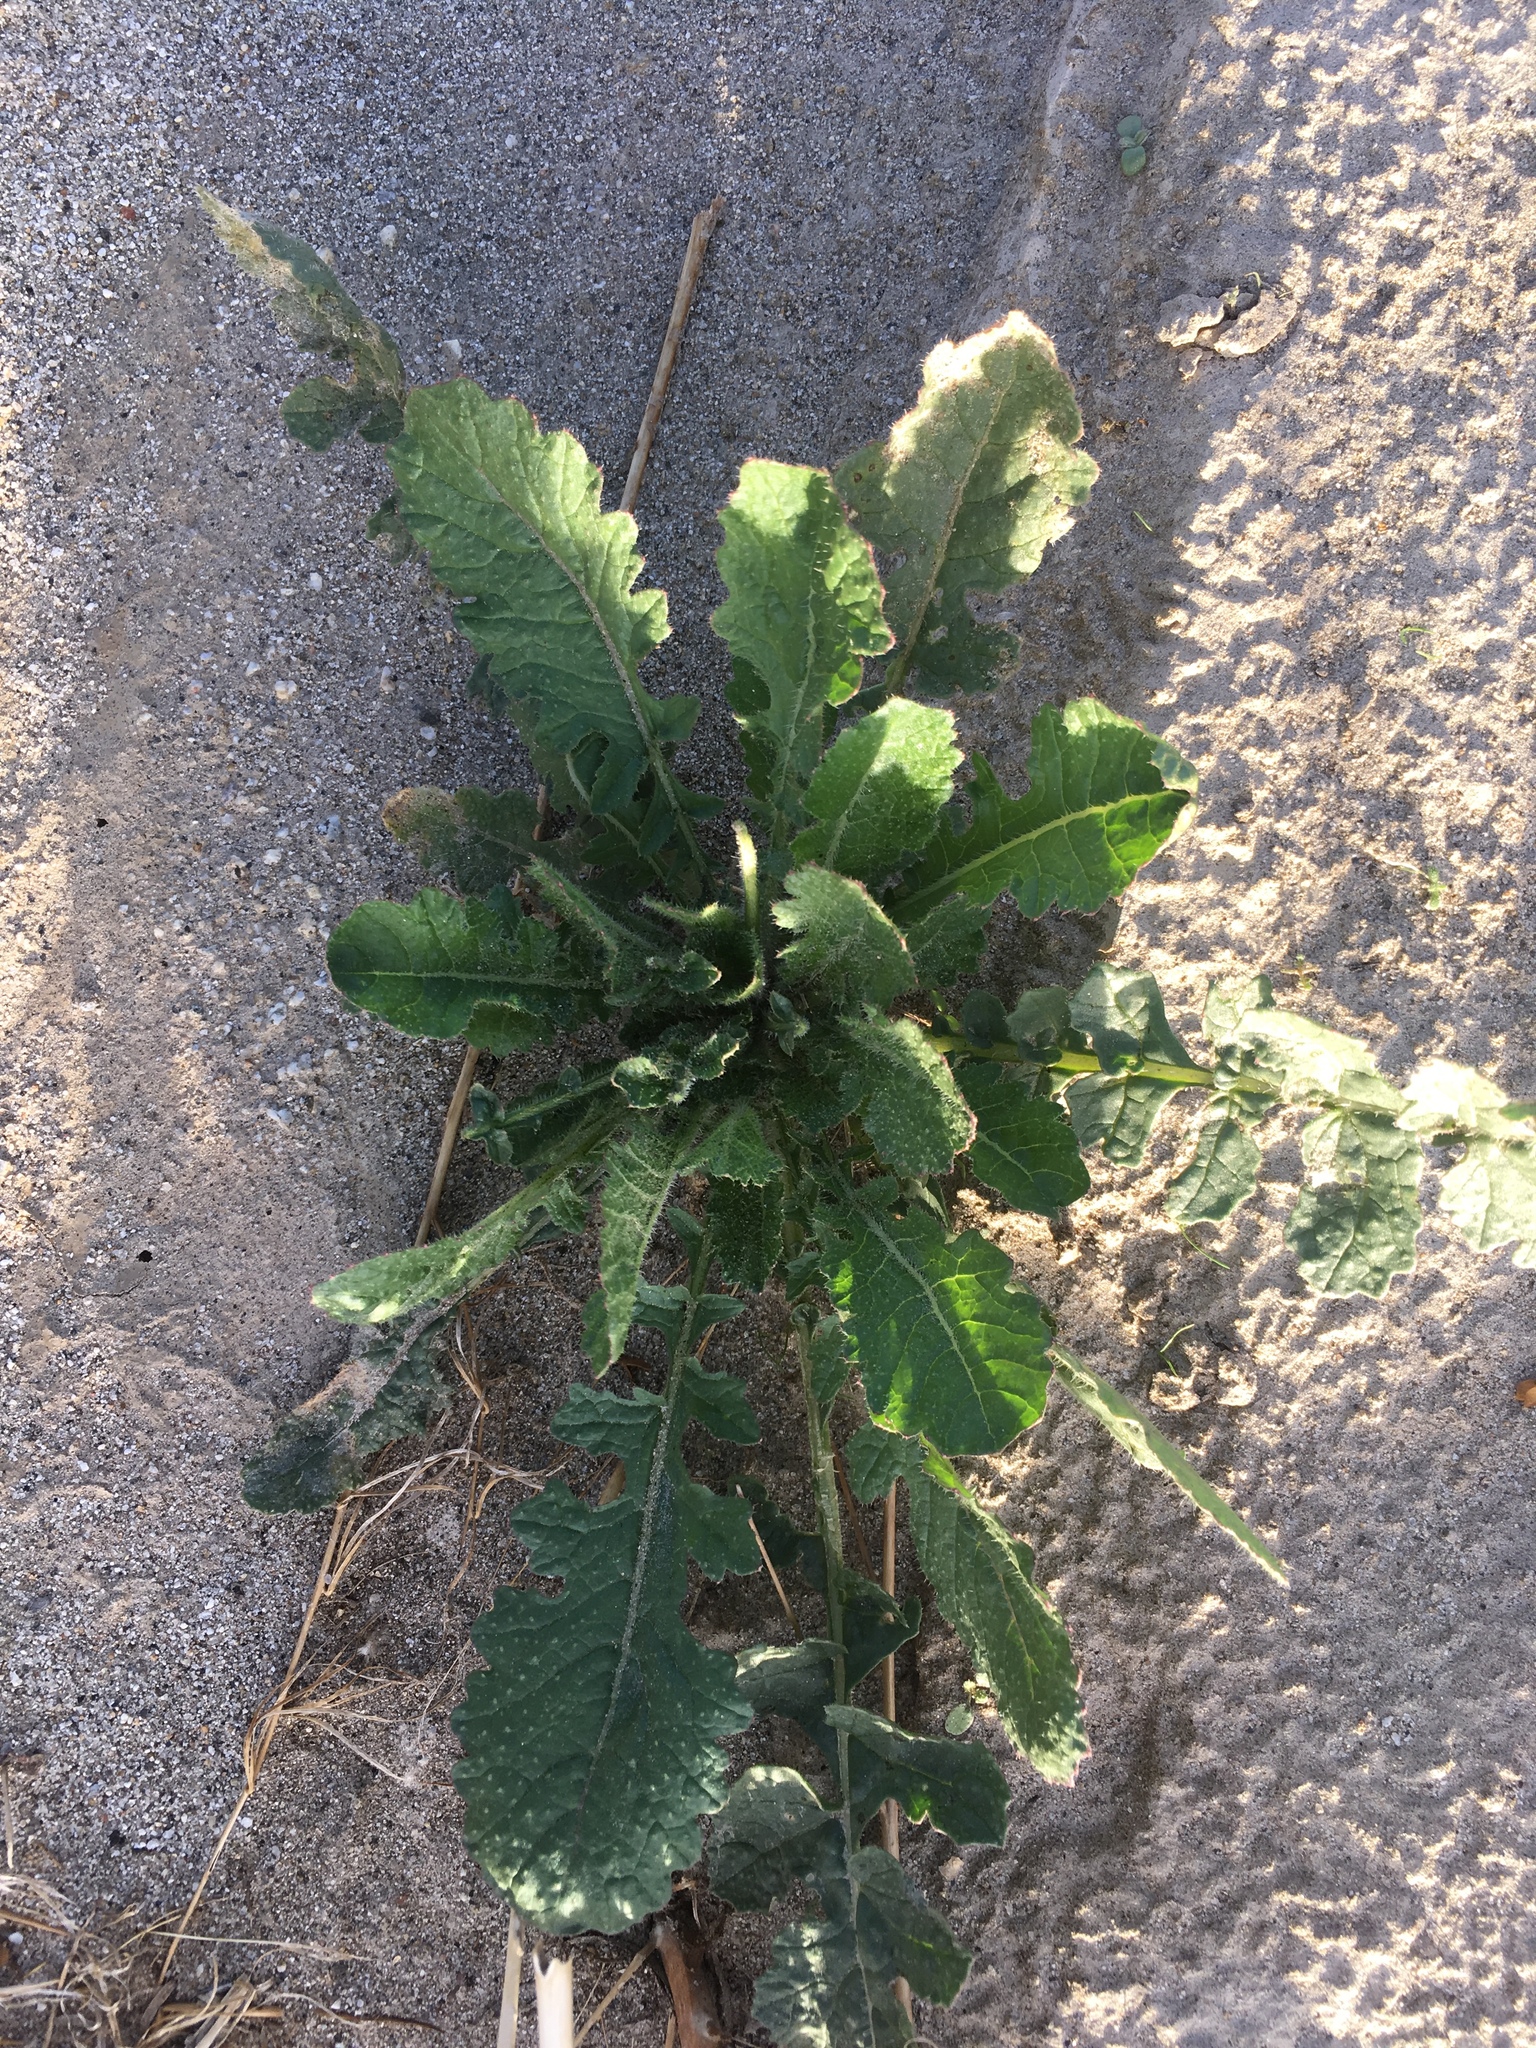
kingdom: Plantae
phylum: Tracheophyta
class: Magnoliopsida
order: Brassicales
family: Brassicaceae
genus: Brassica
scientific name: Brassica tournefortii
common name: Pale cabbage
